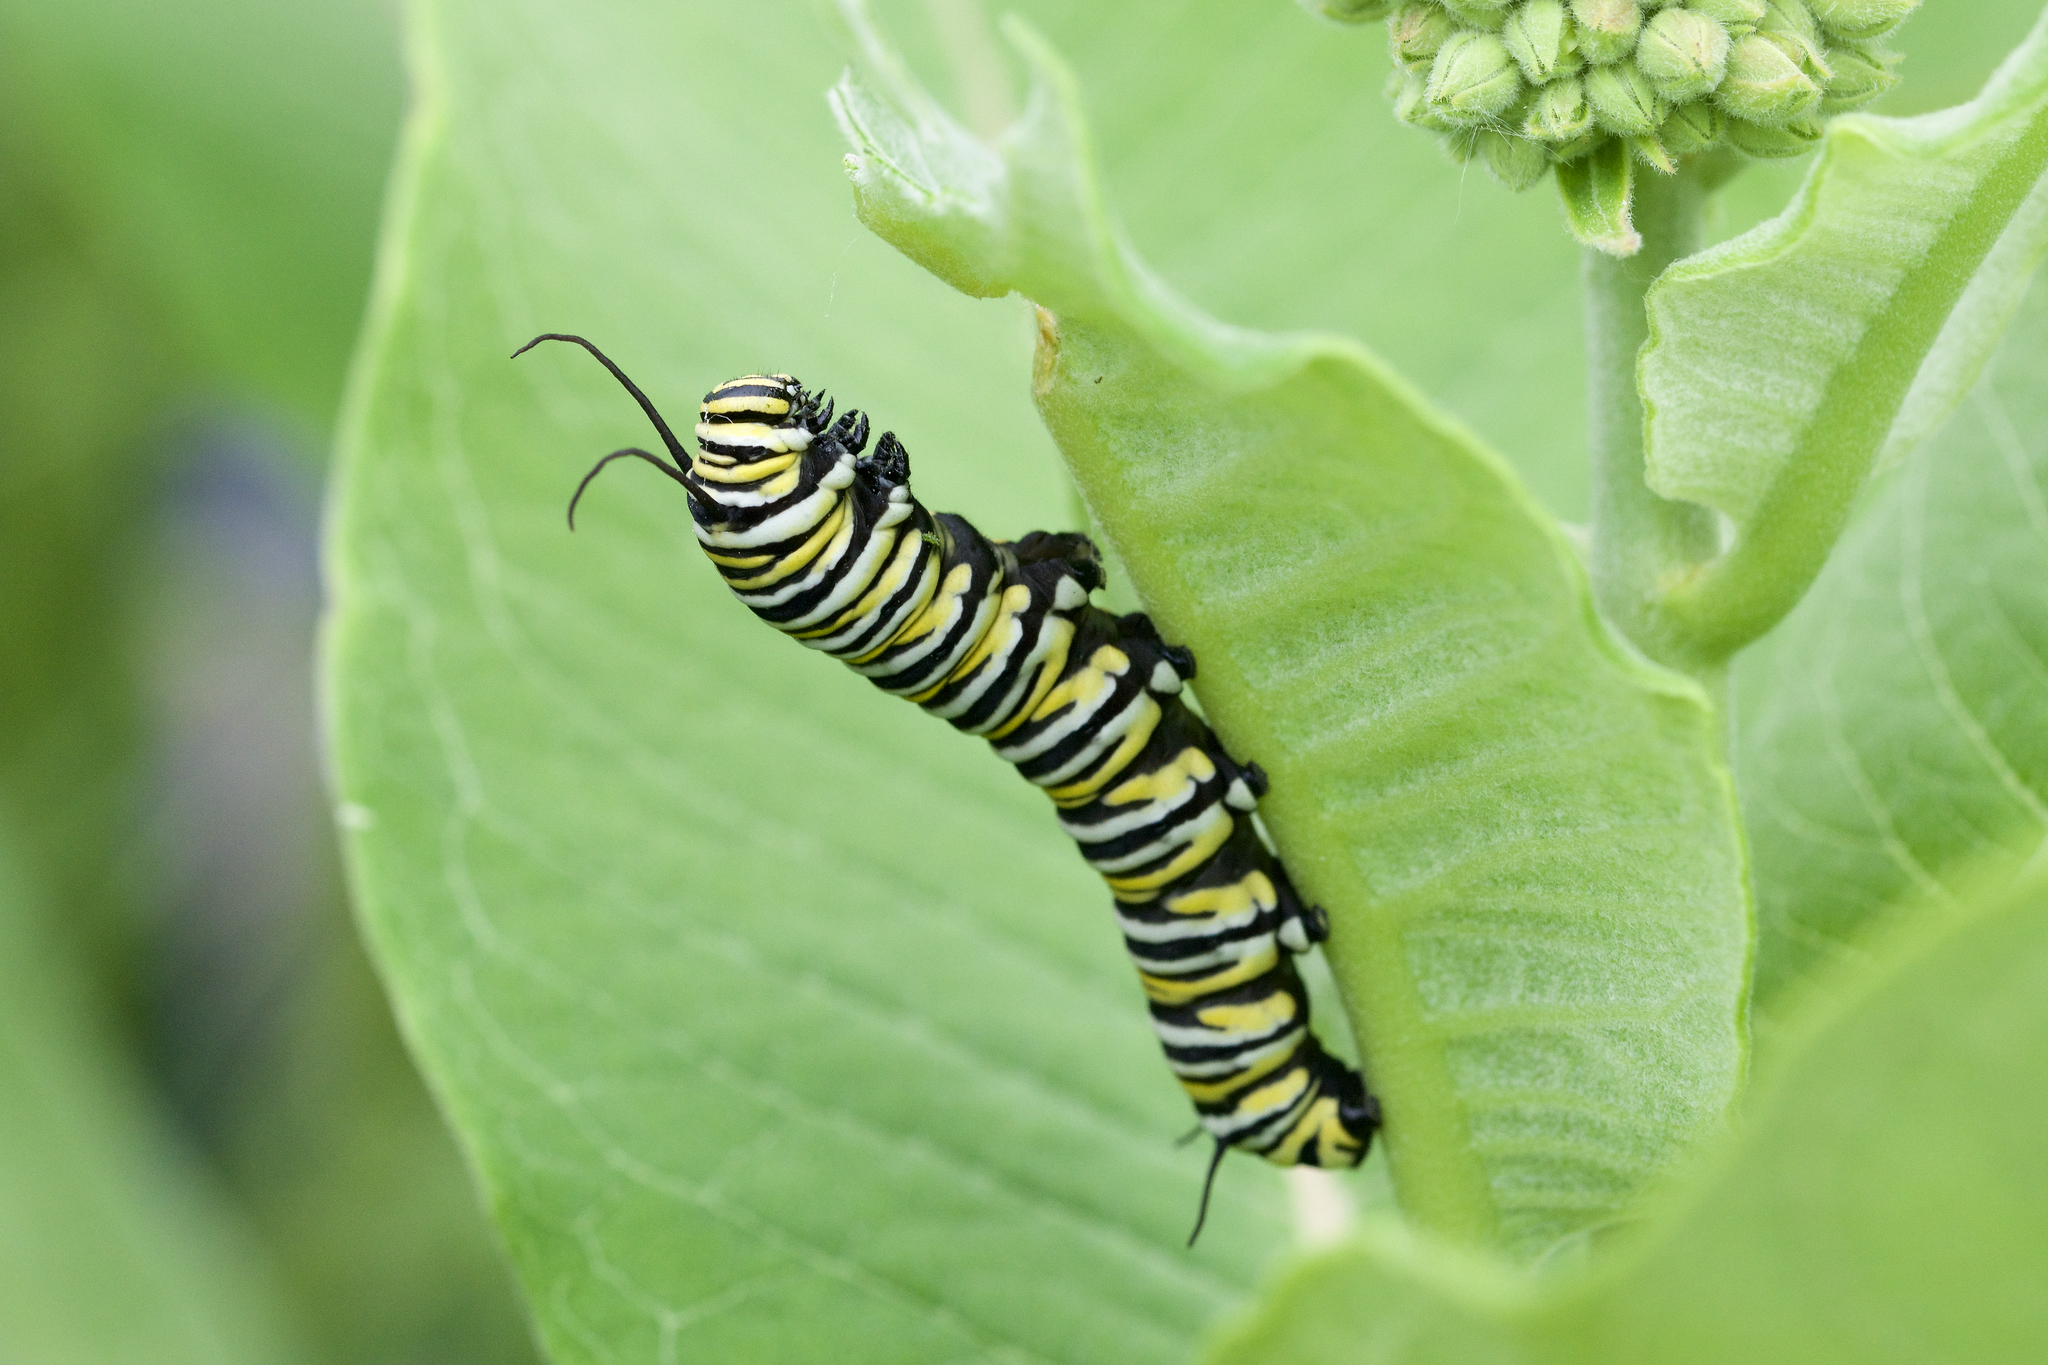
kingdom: Animalia
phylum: Arthropoda
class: Insecta
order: Lepidoptera
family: Nymphalidae
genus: Danaus
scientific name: Danaus plexippus
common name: Monarch
